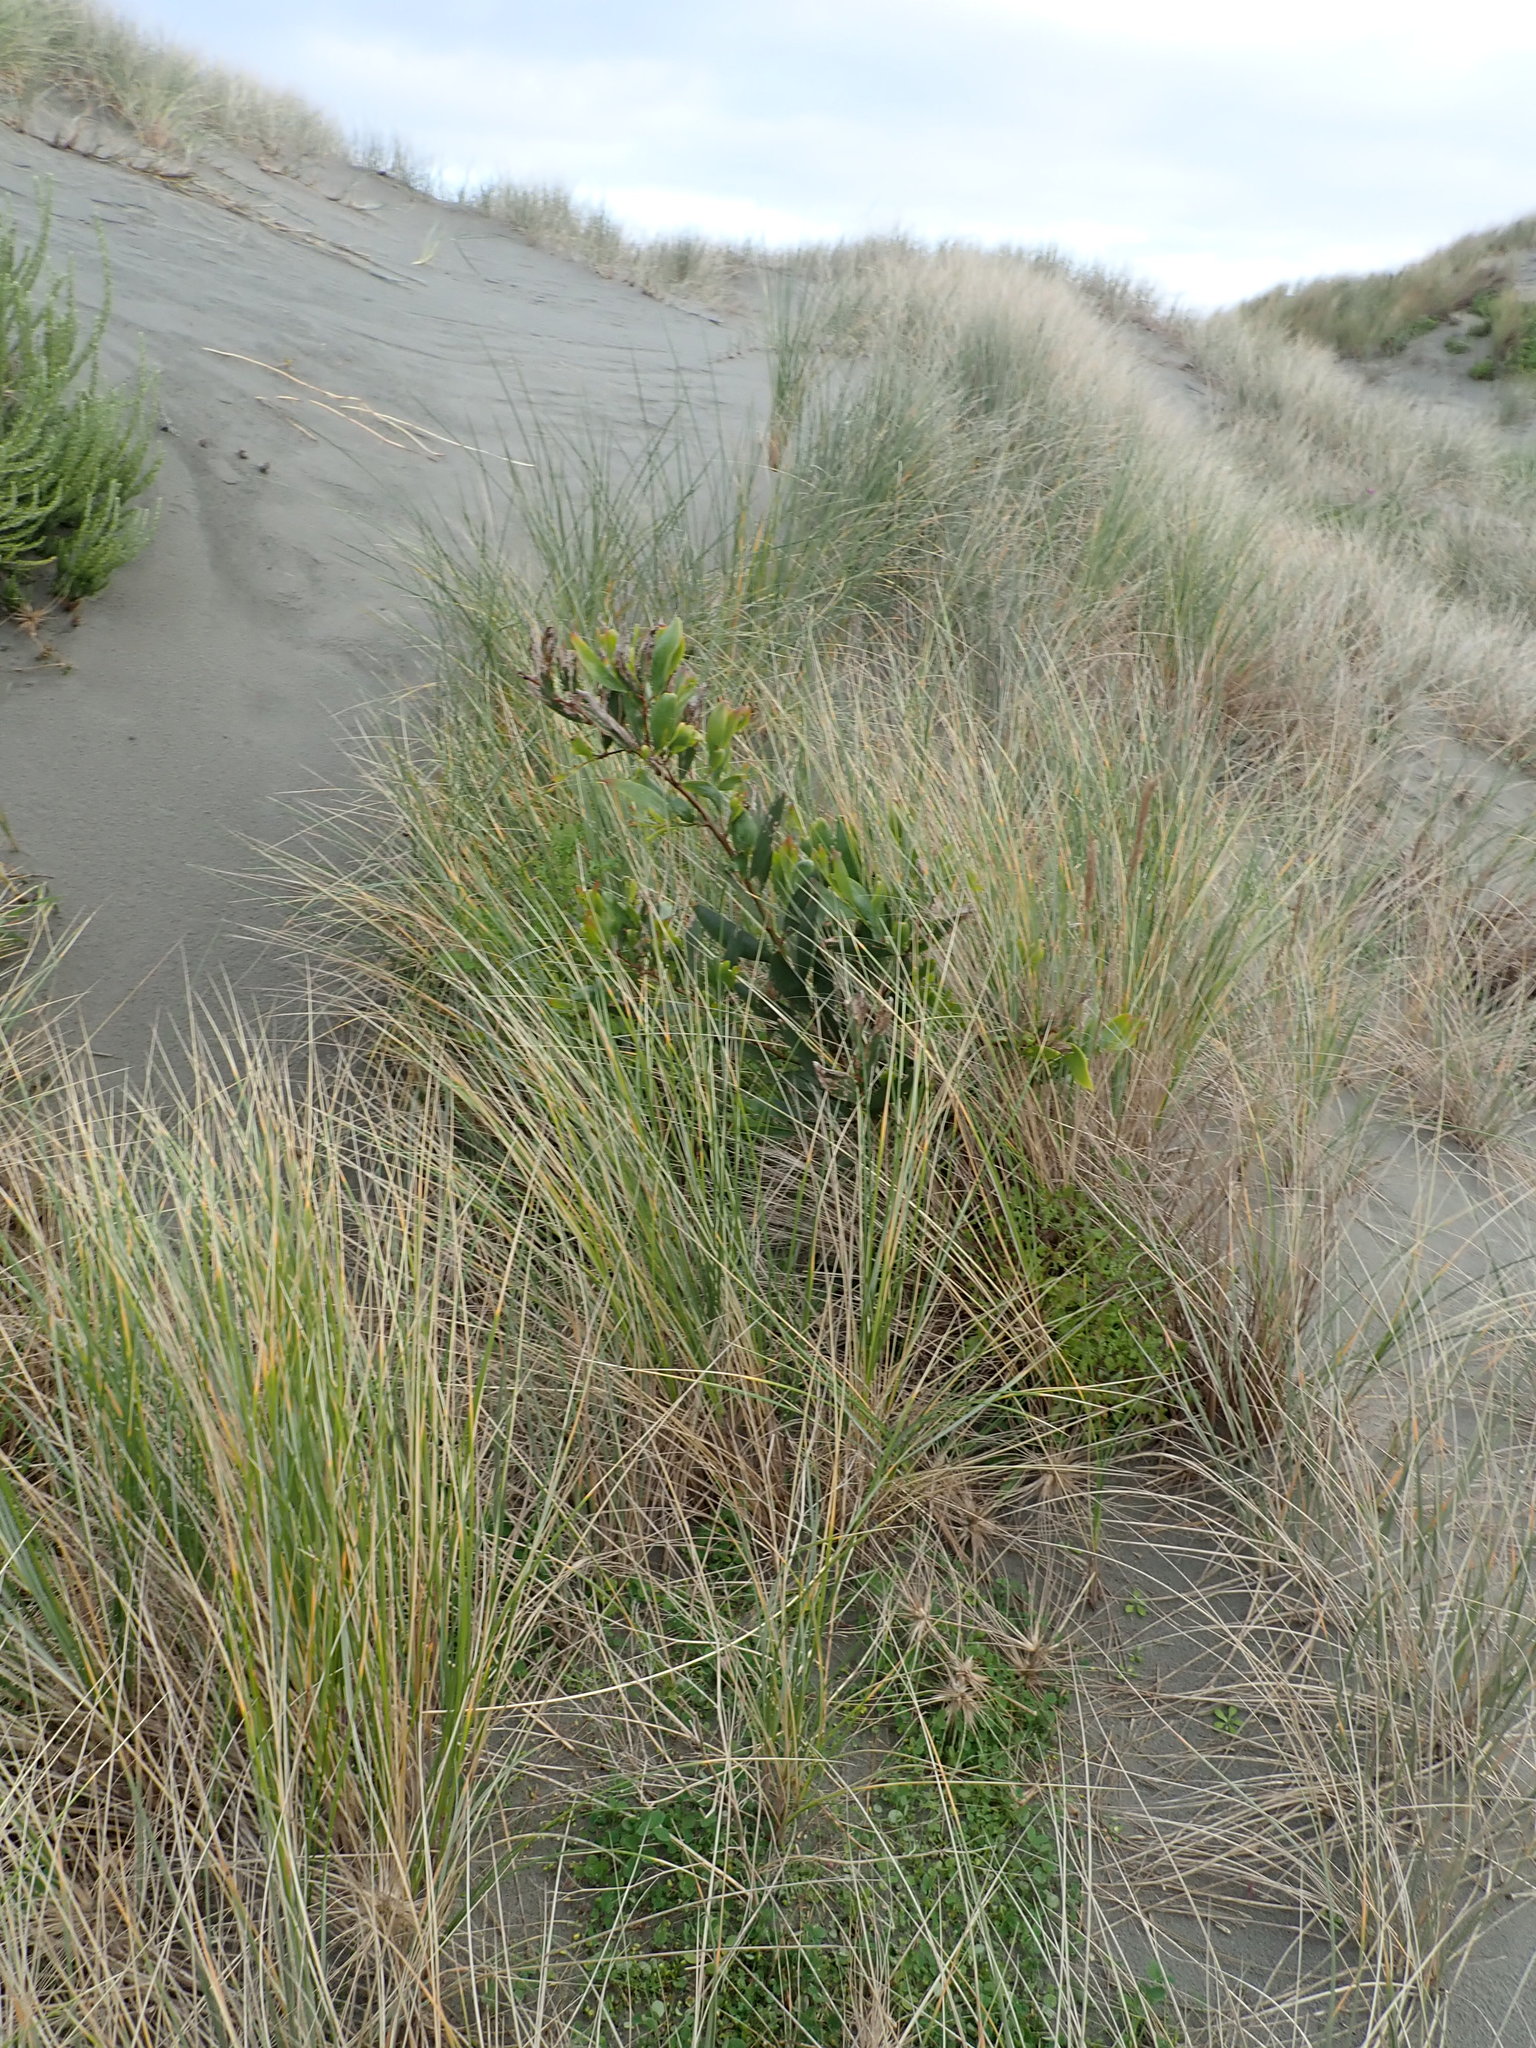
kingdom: Plantae
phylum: Tracheophyta
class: Magnoliopsida
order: Fabales
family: Fabaceae
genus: Acacia
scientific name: Acacia longifolia
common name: Sydney golden wattle
